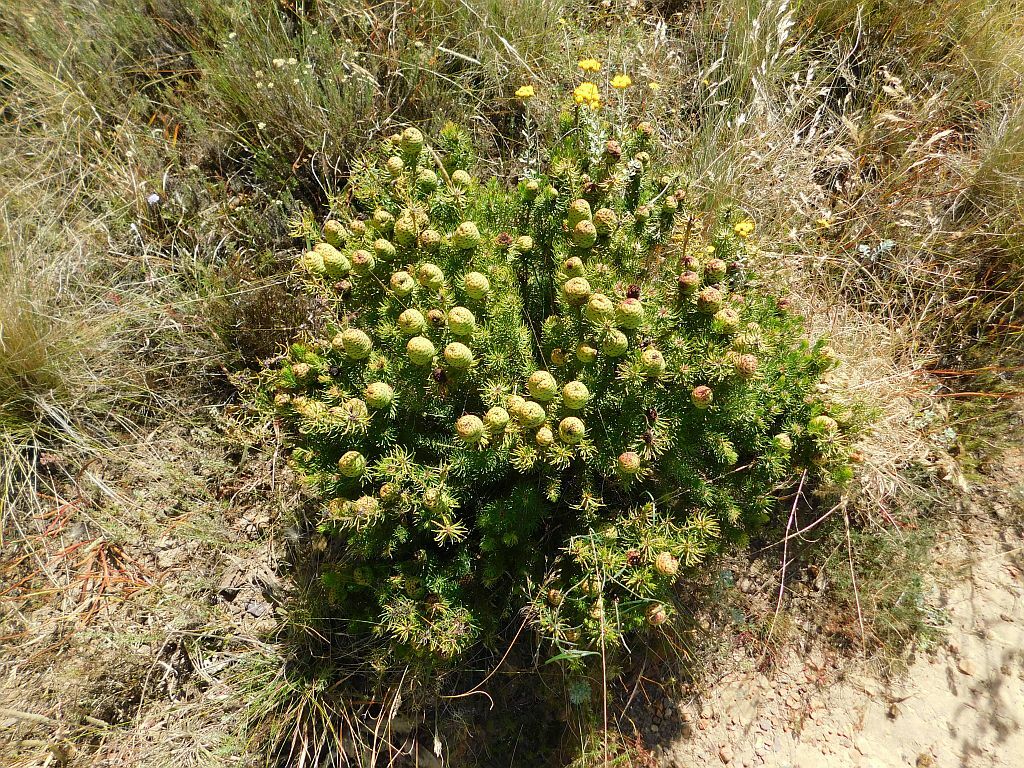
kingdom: Plantae
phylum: Tracheophyta
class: Magnoliopsida
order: Proteales
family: Proteaceae
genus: Leucadendron
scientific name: Leucadendron teretifolium
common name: Needle-leaf conebush
